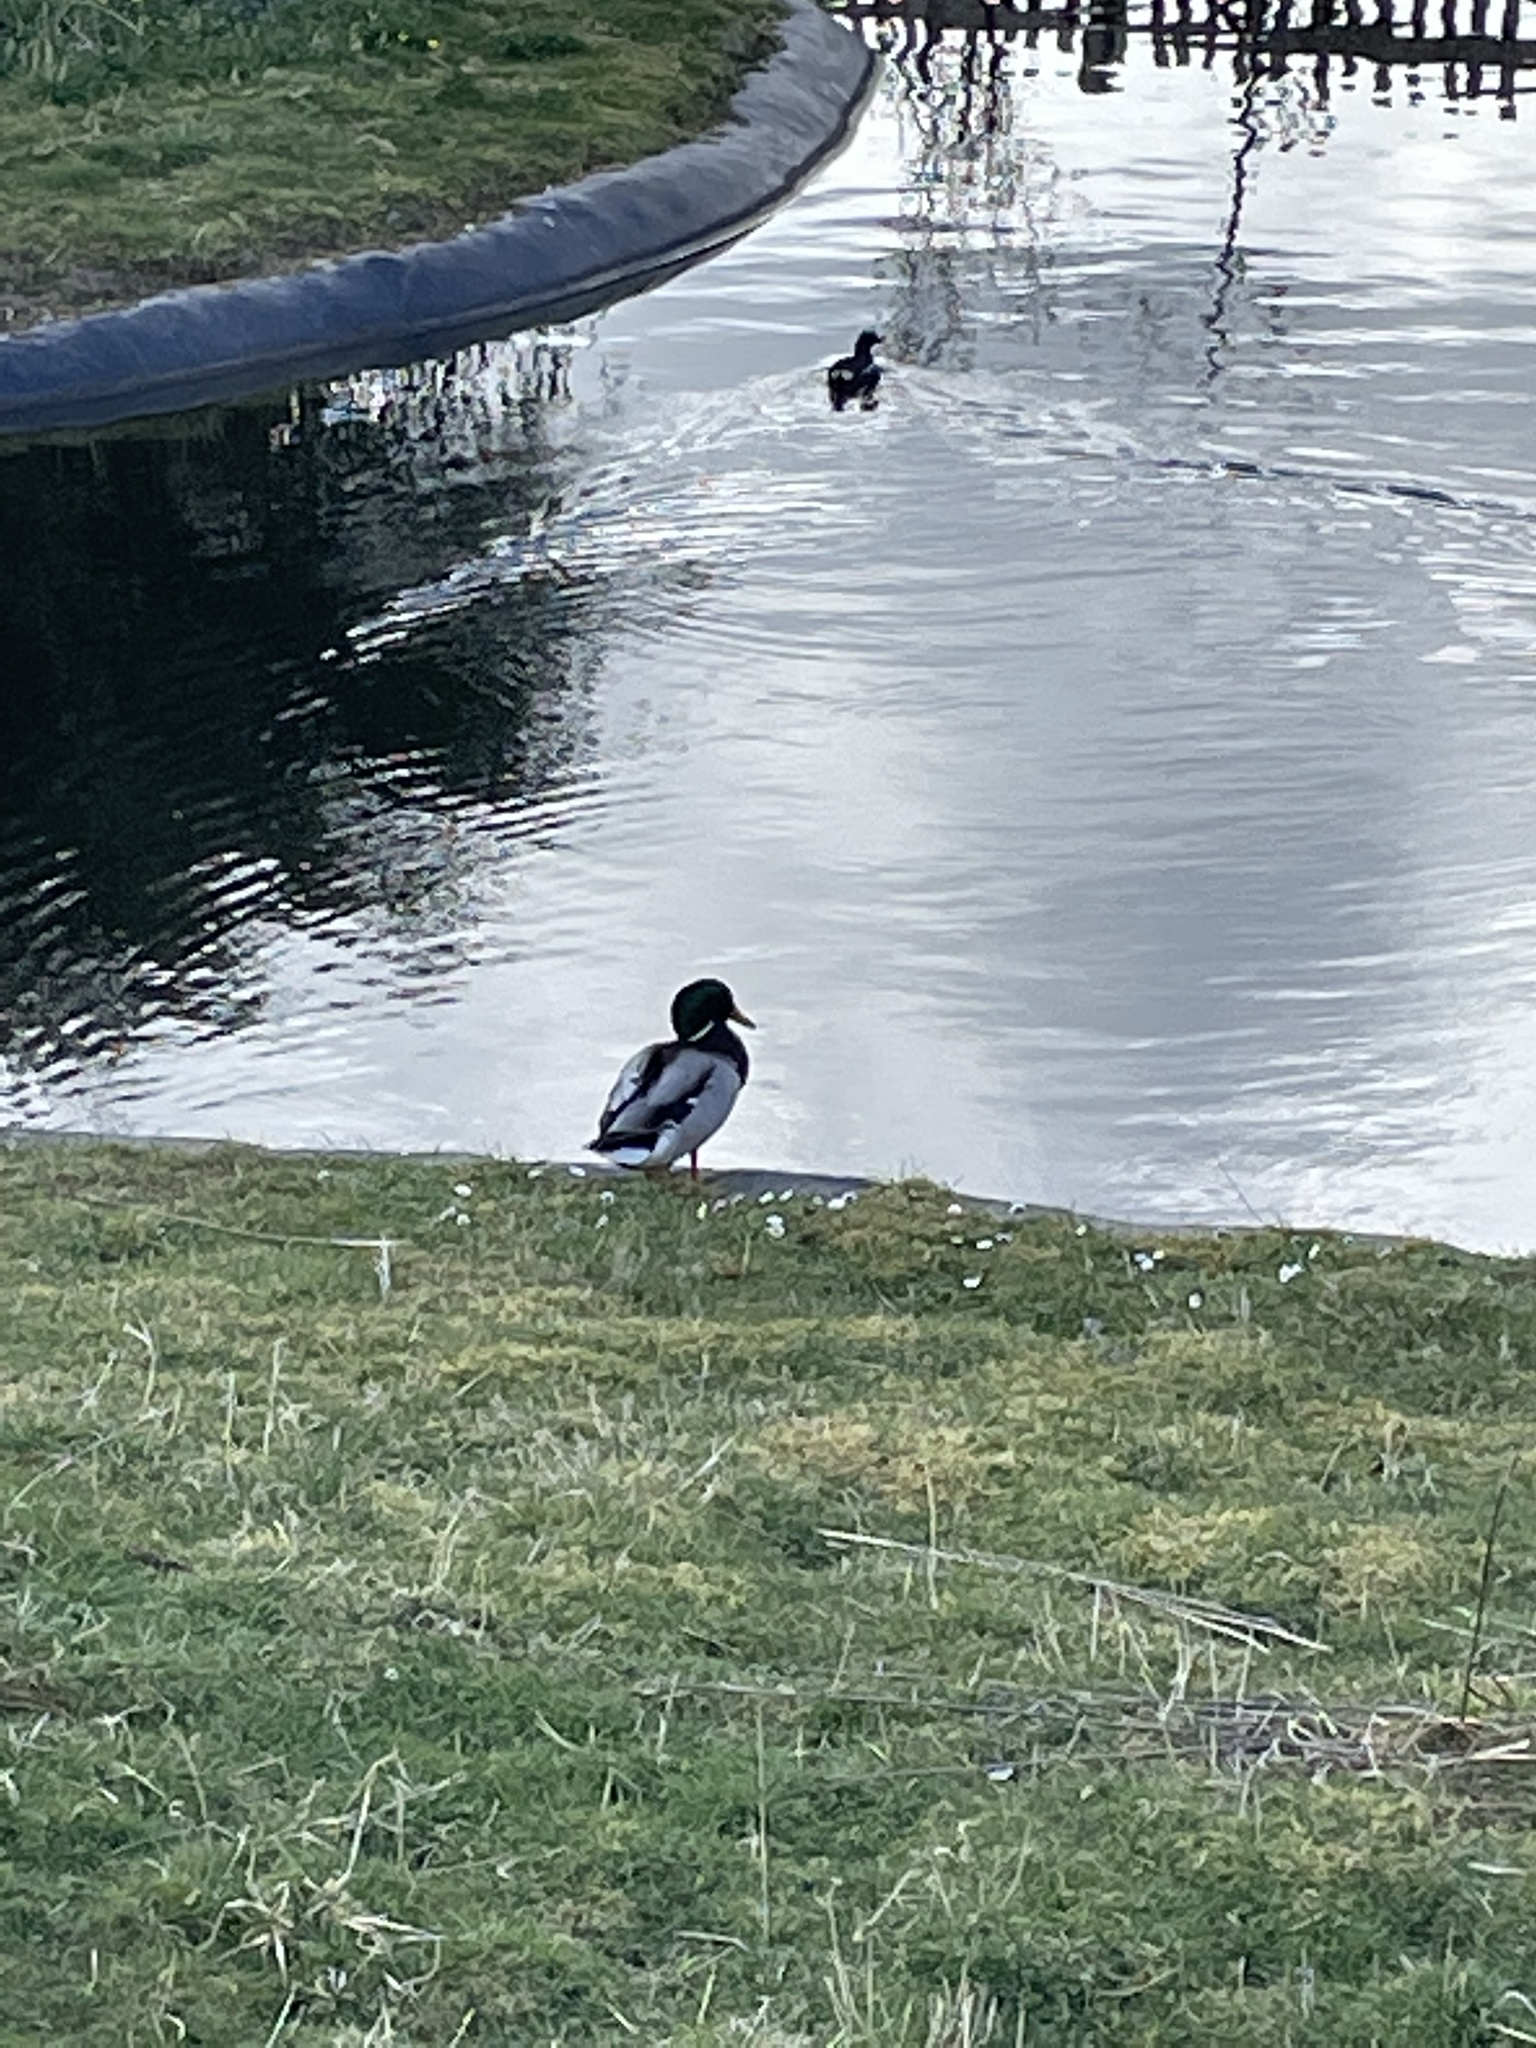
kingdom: Animalia
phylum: Chordata
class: Aves
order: Anseriformes
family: Anatidae
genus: Anas
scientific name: Anas platyrhynchos
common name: Mallard
